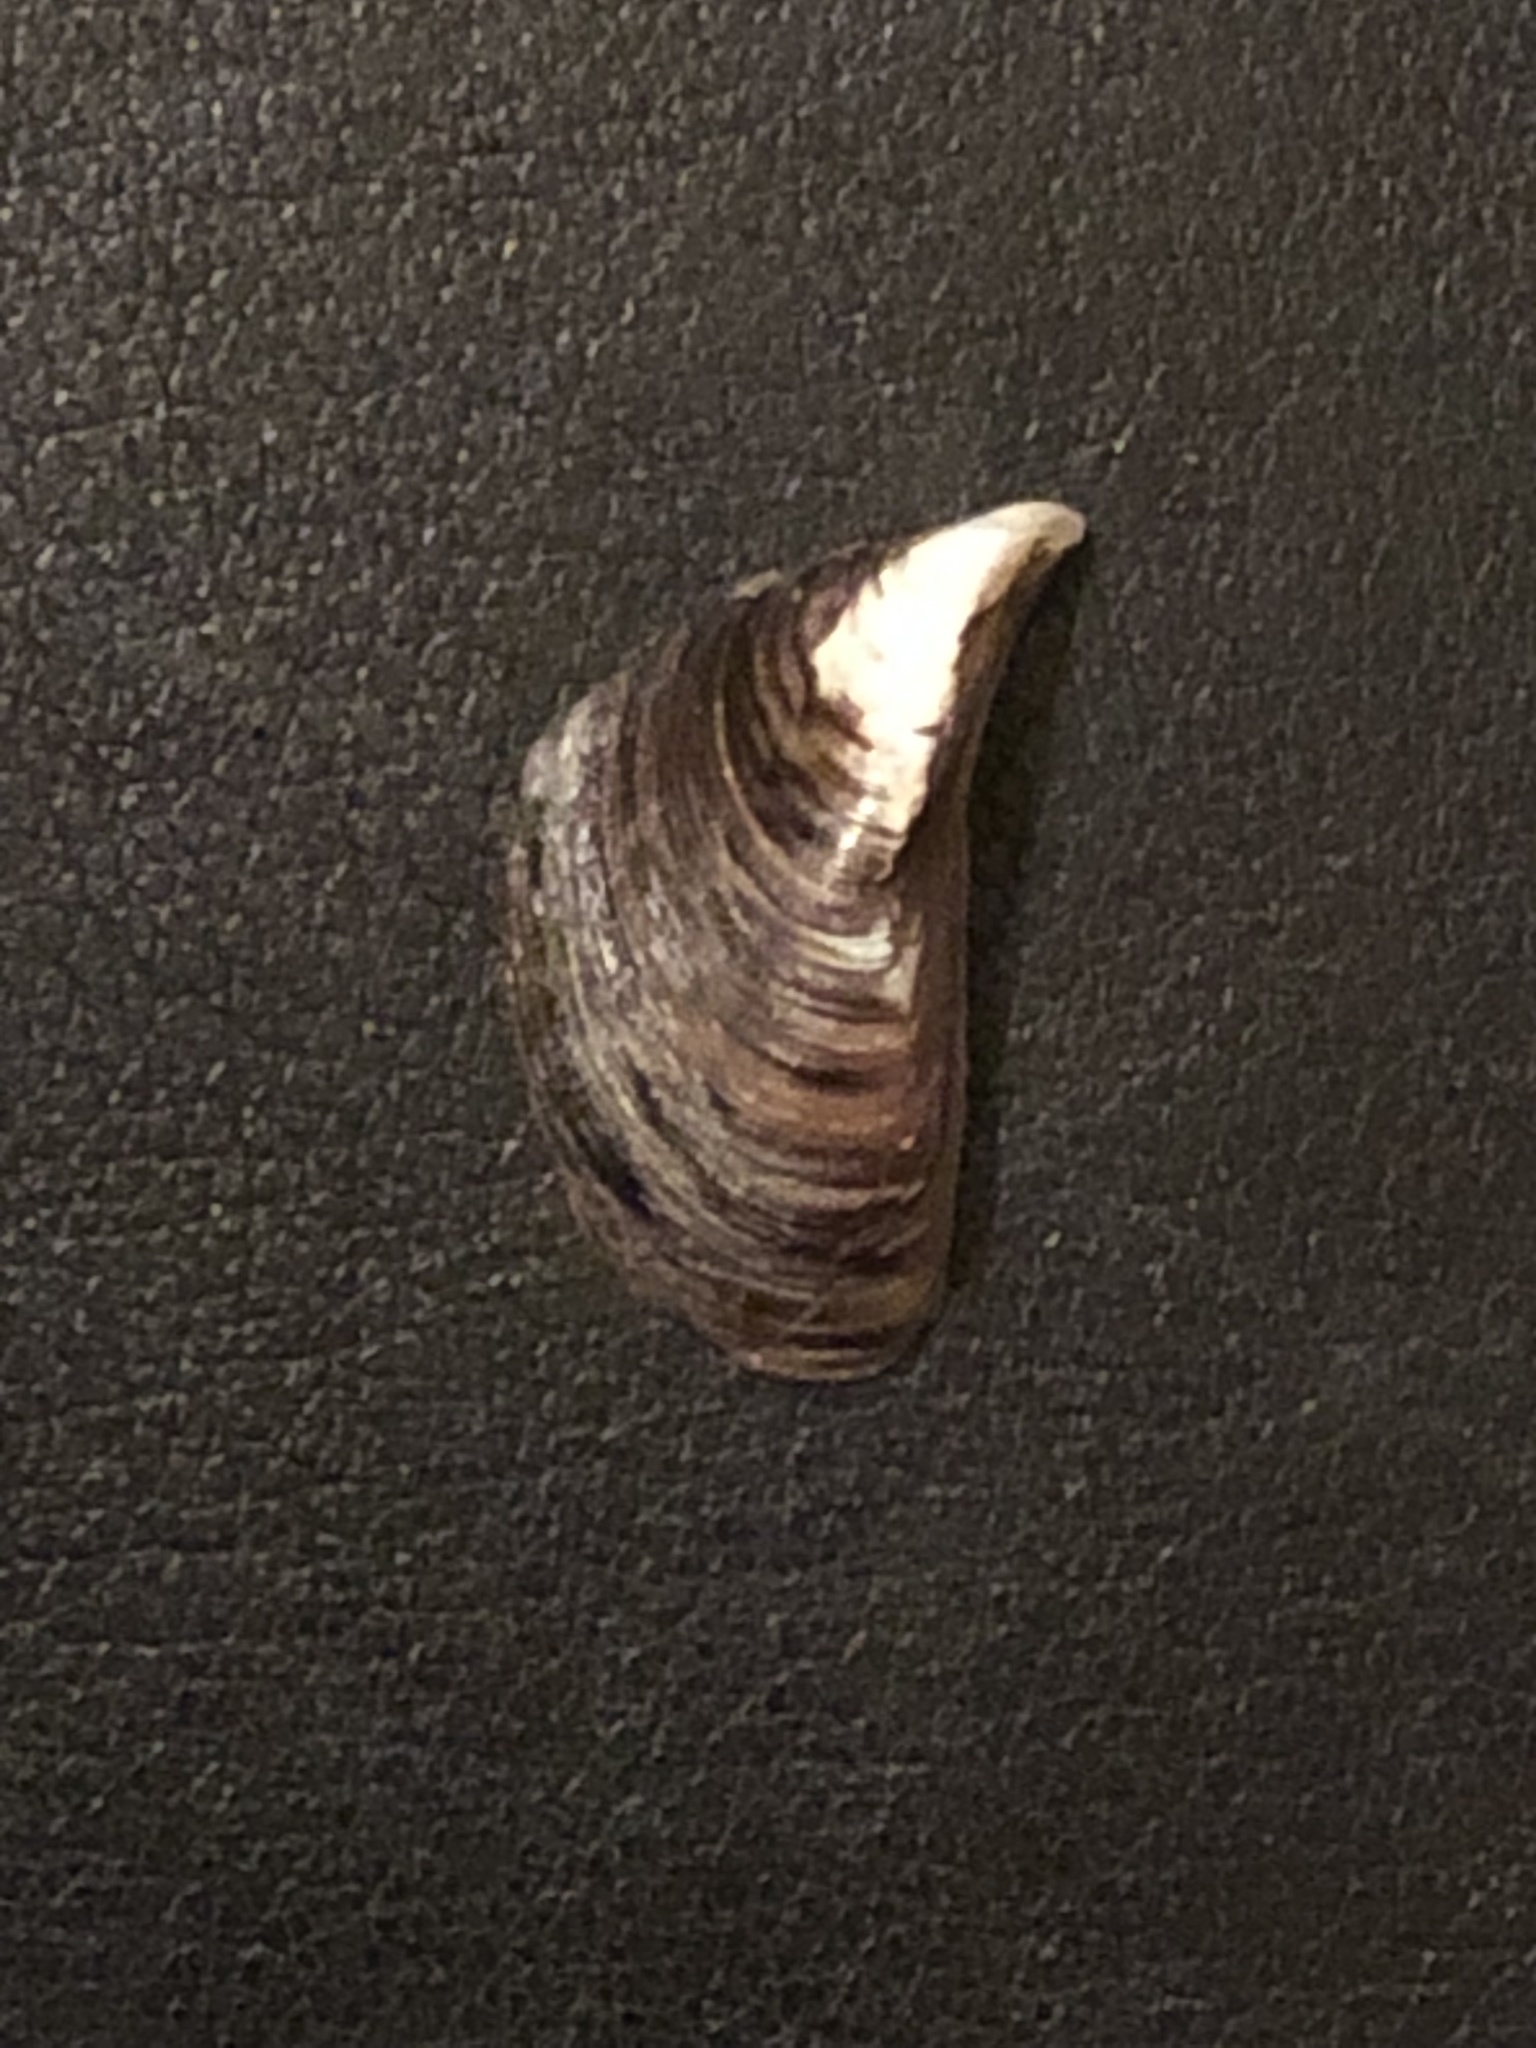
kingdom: Animalia
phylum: Mollusca
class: Bivalvia
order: Myida
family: Dreissenidae
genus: Dreissena
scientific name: Dreissena polymorpha
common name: Zebra mussel
